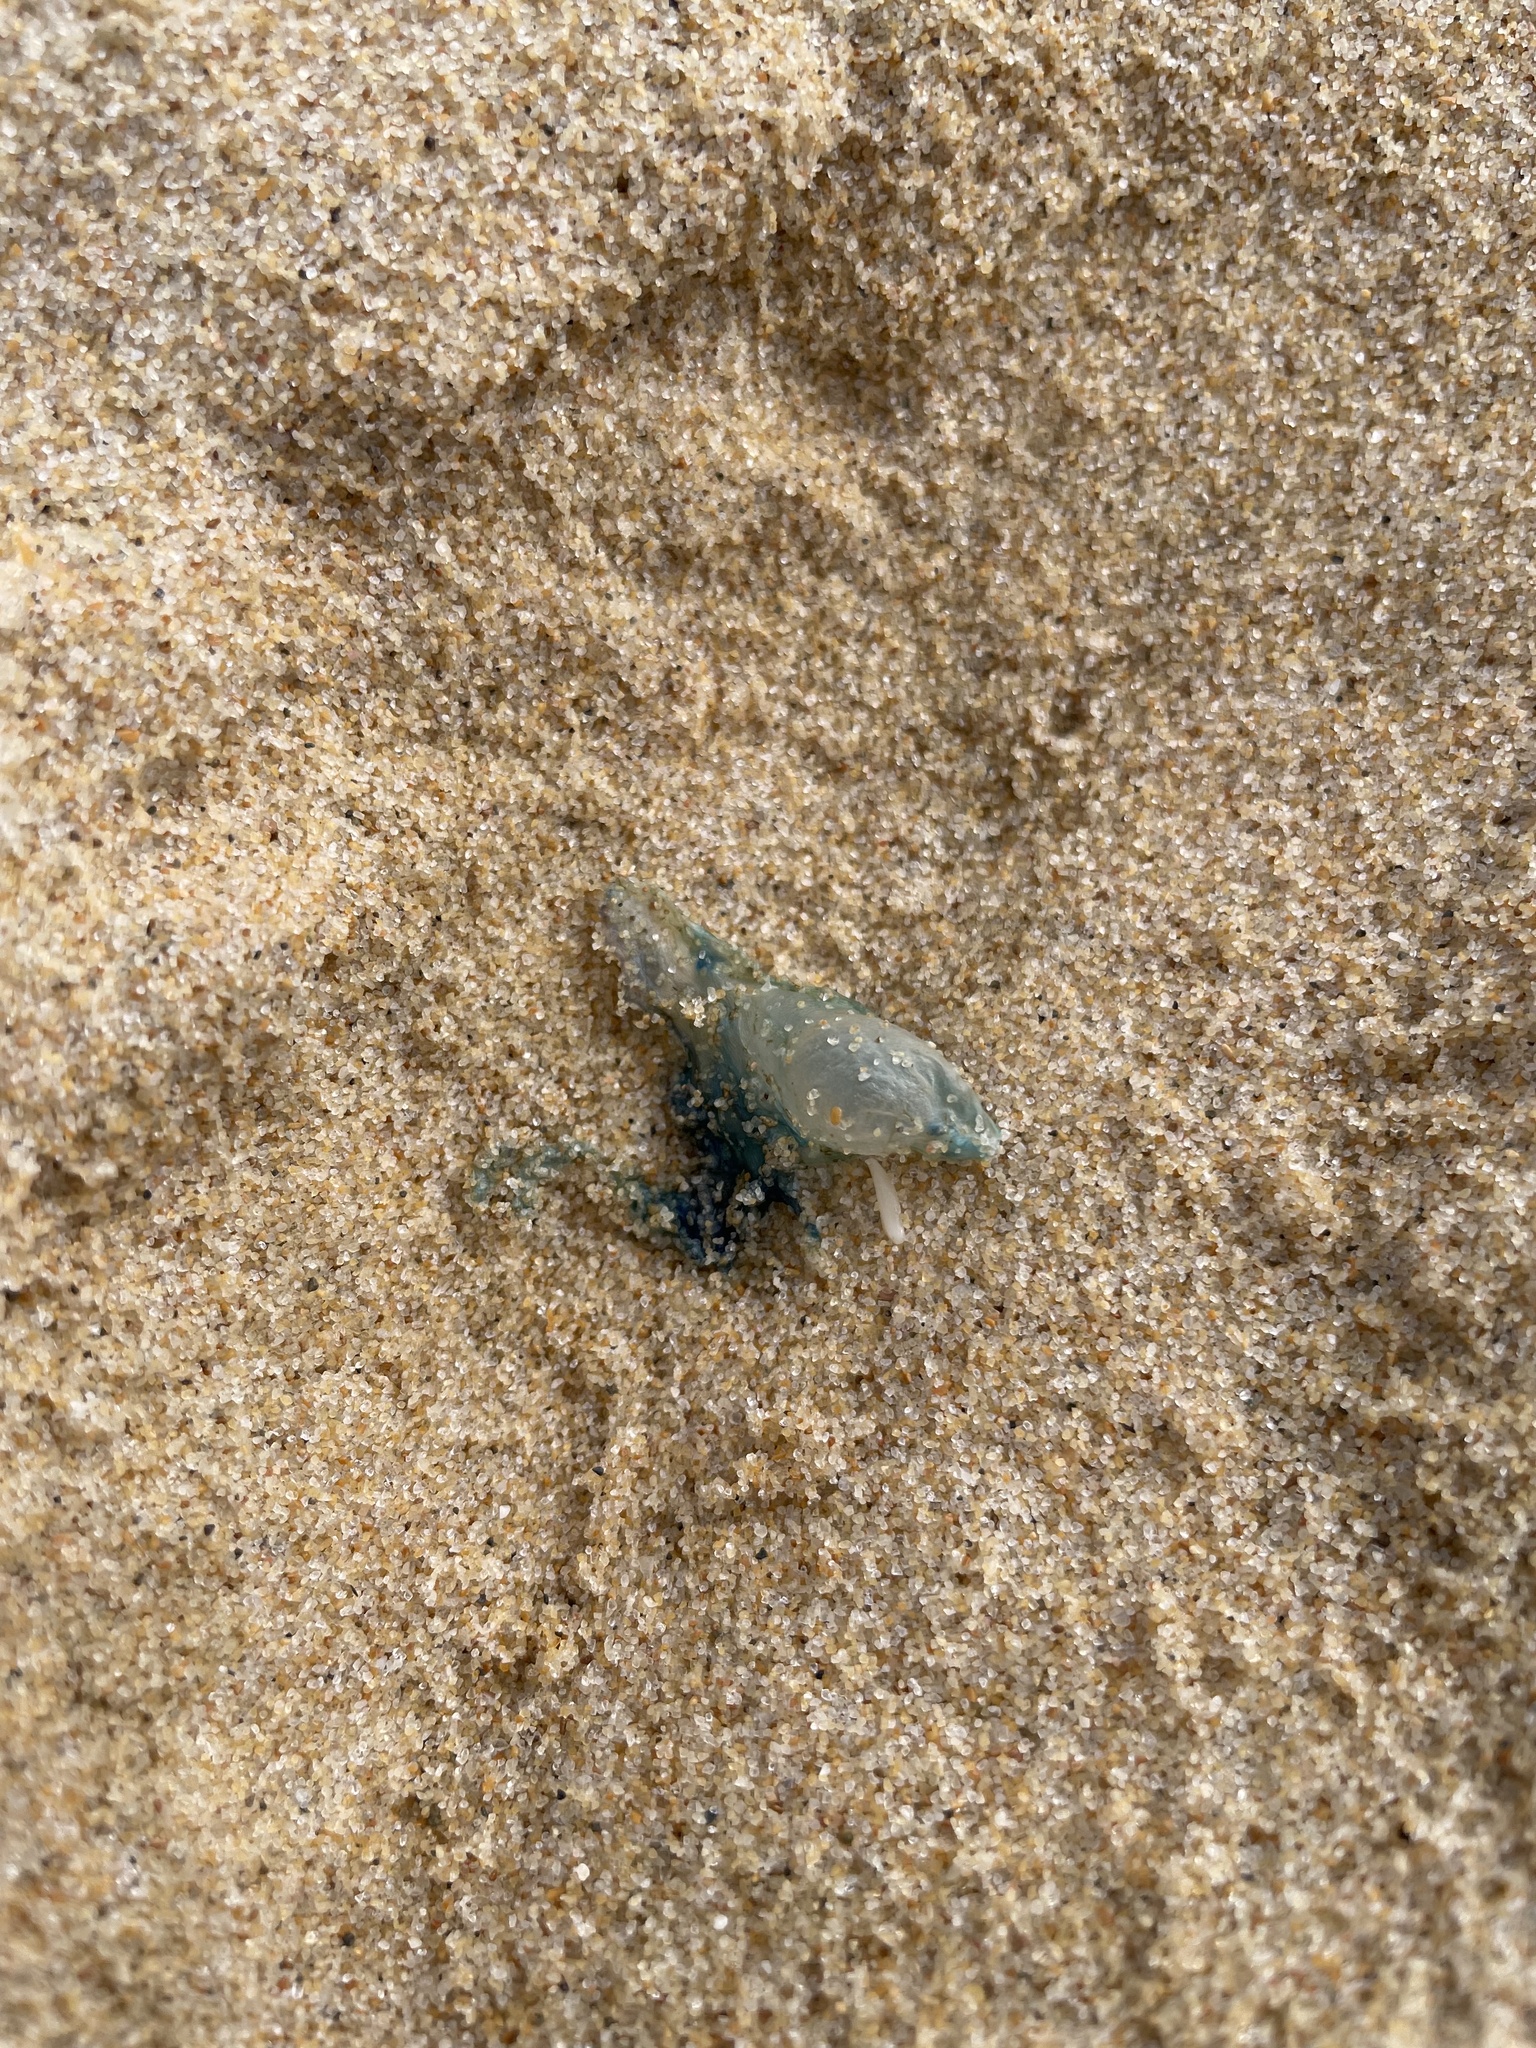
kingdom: Animalia
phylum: Cnidaria
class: Hydrozoa
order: Siphonophorae
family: Physaliidae
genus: Physalia
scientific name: Physalia physalis
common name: Portuguese man-of-war
